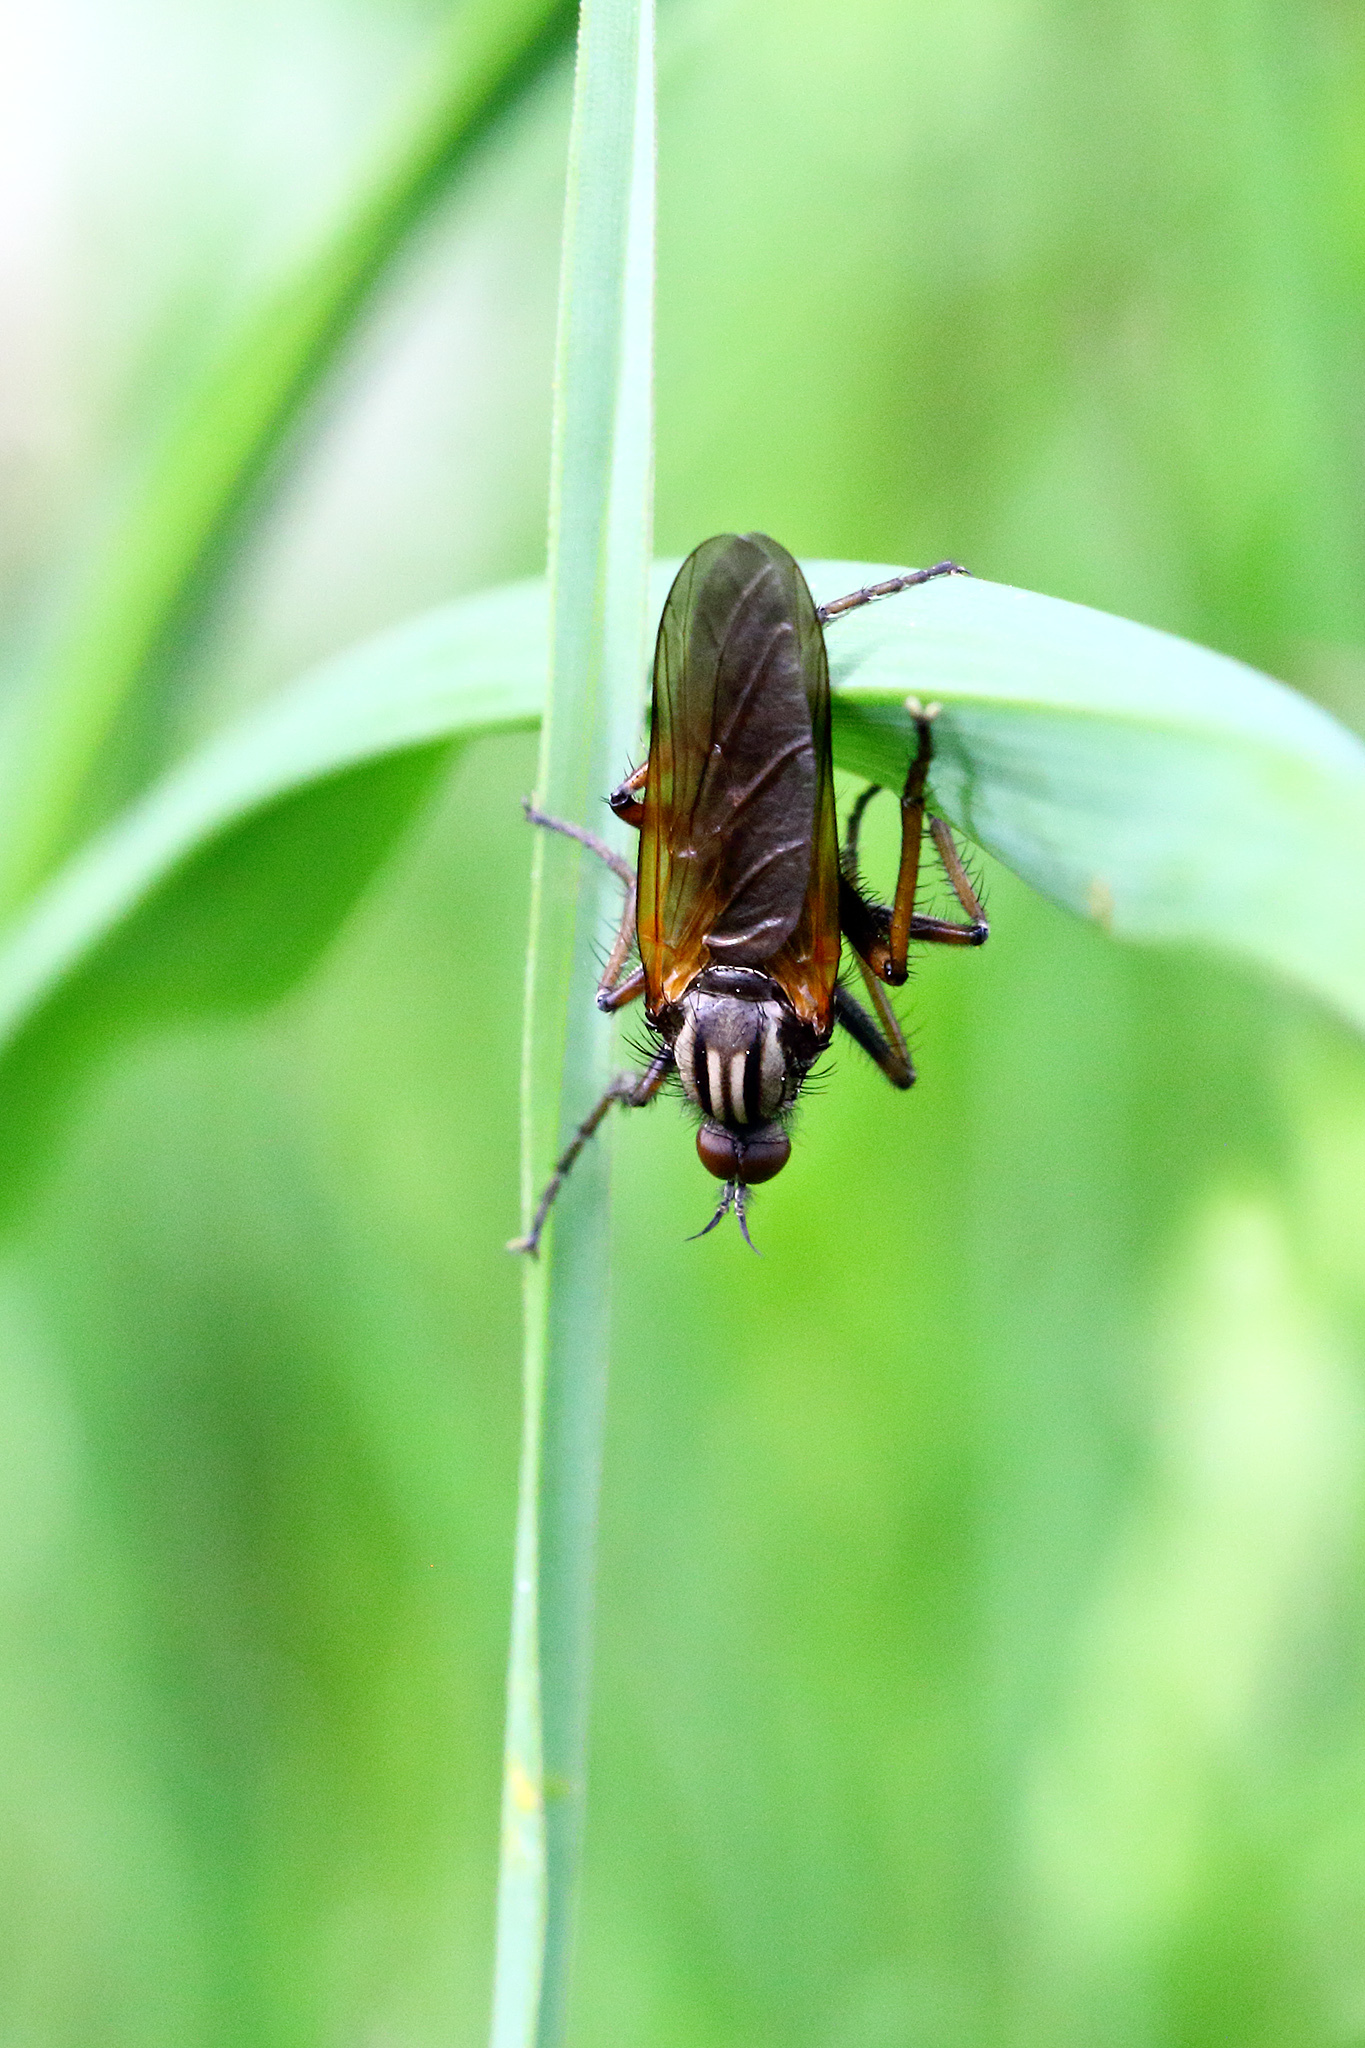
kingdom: Animalia
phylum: Arthropoda
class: Insecta
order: Diptera
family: Empididae
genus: Empis
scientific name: Empis tessellata
